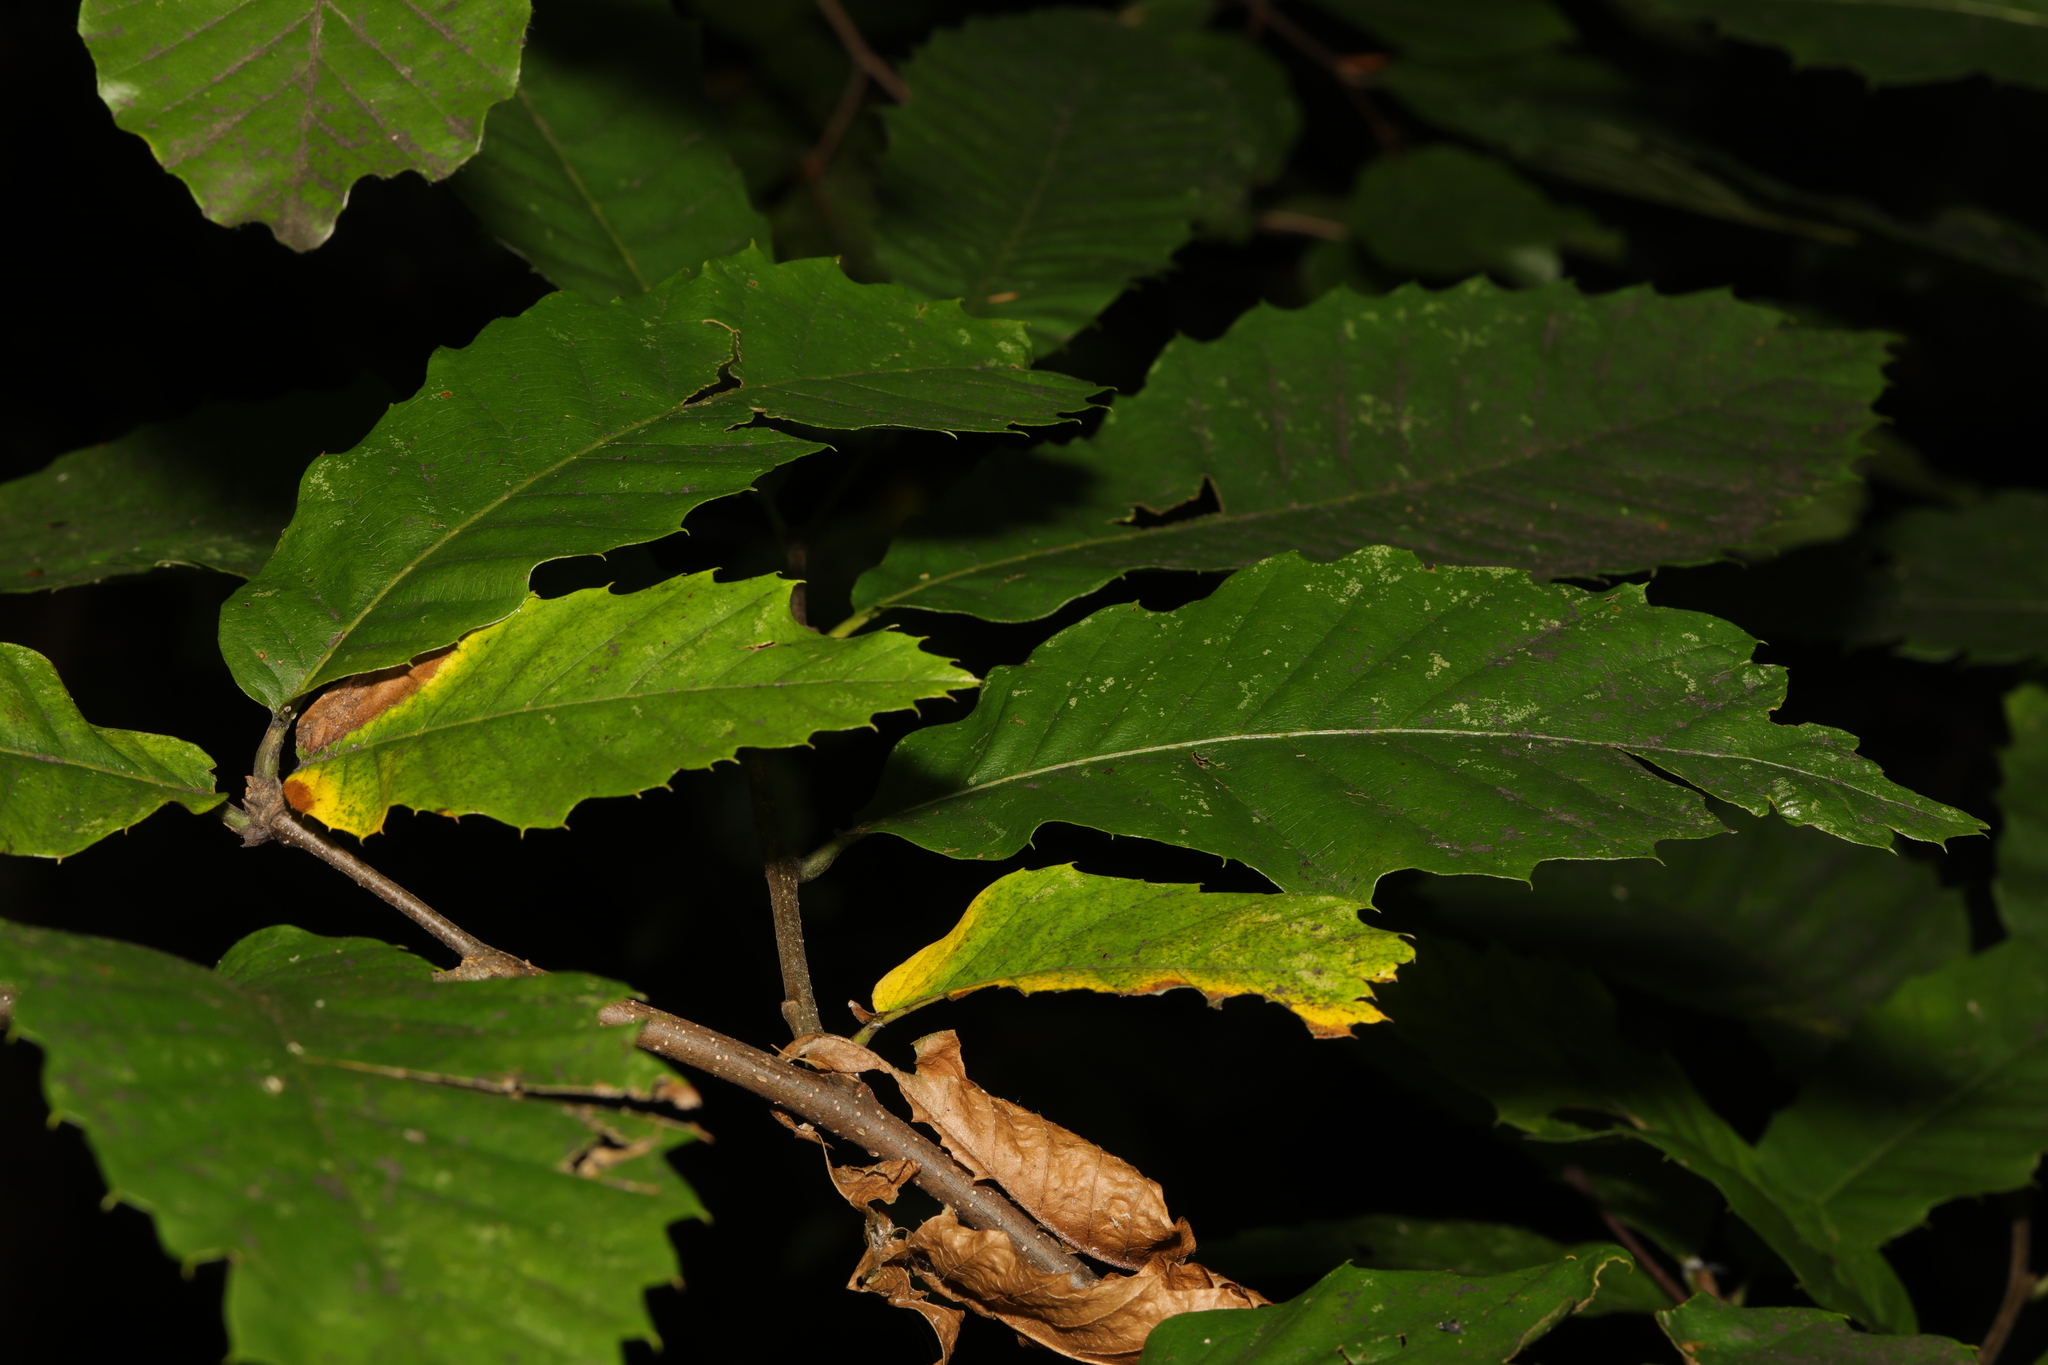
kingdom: Plantae
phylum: Tracheophyta
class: Magnoliopsida
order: Fagales
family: Fagaceae
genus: Castanea
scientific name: Castanea sativa
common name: Sweet chestnut
